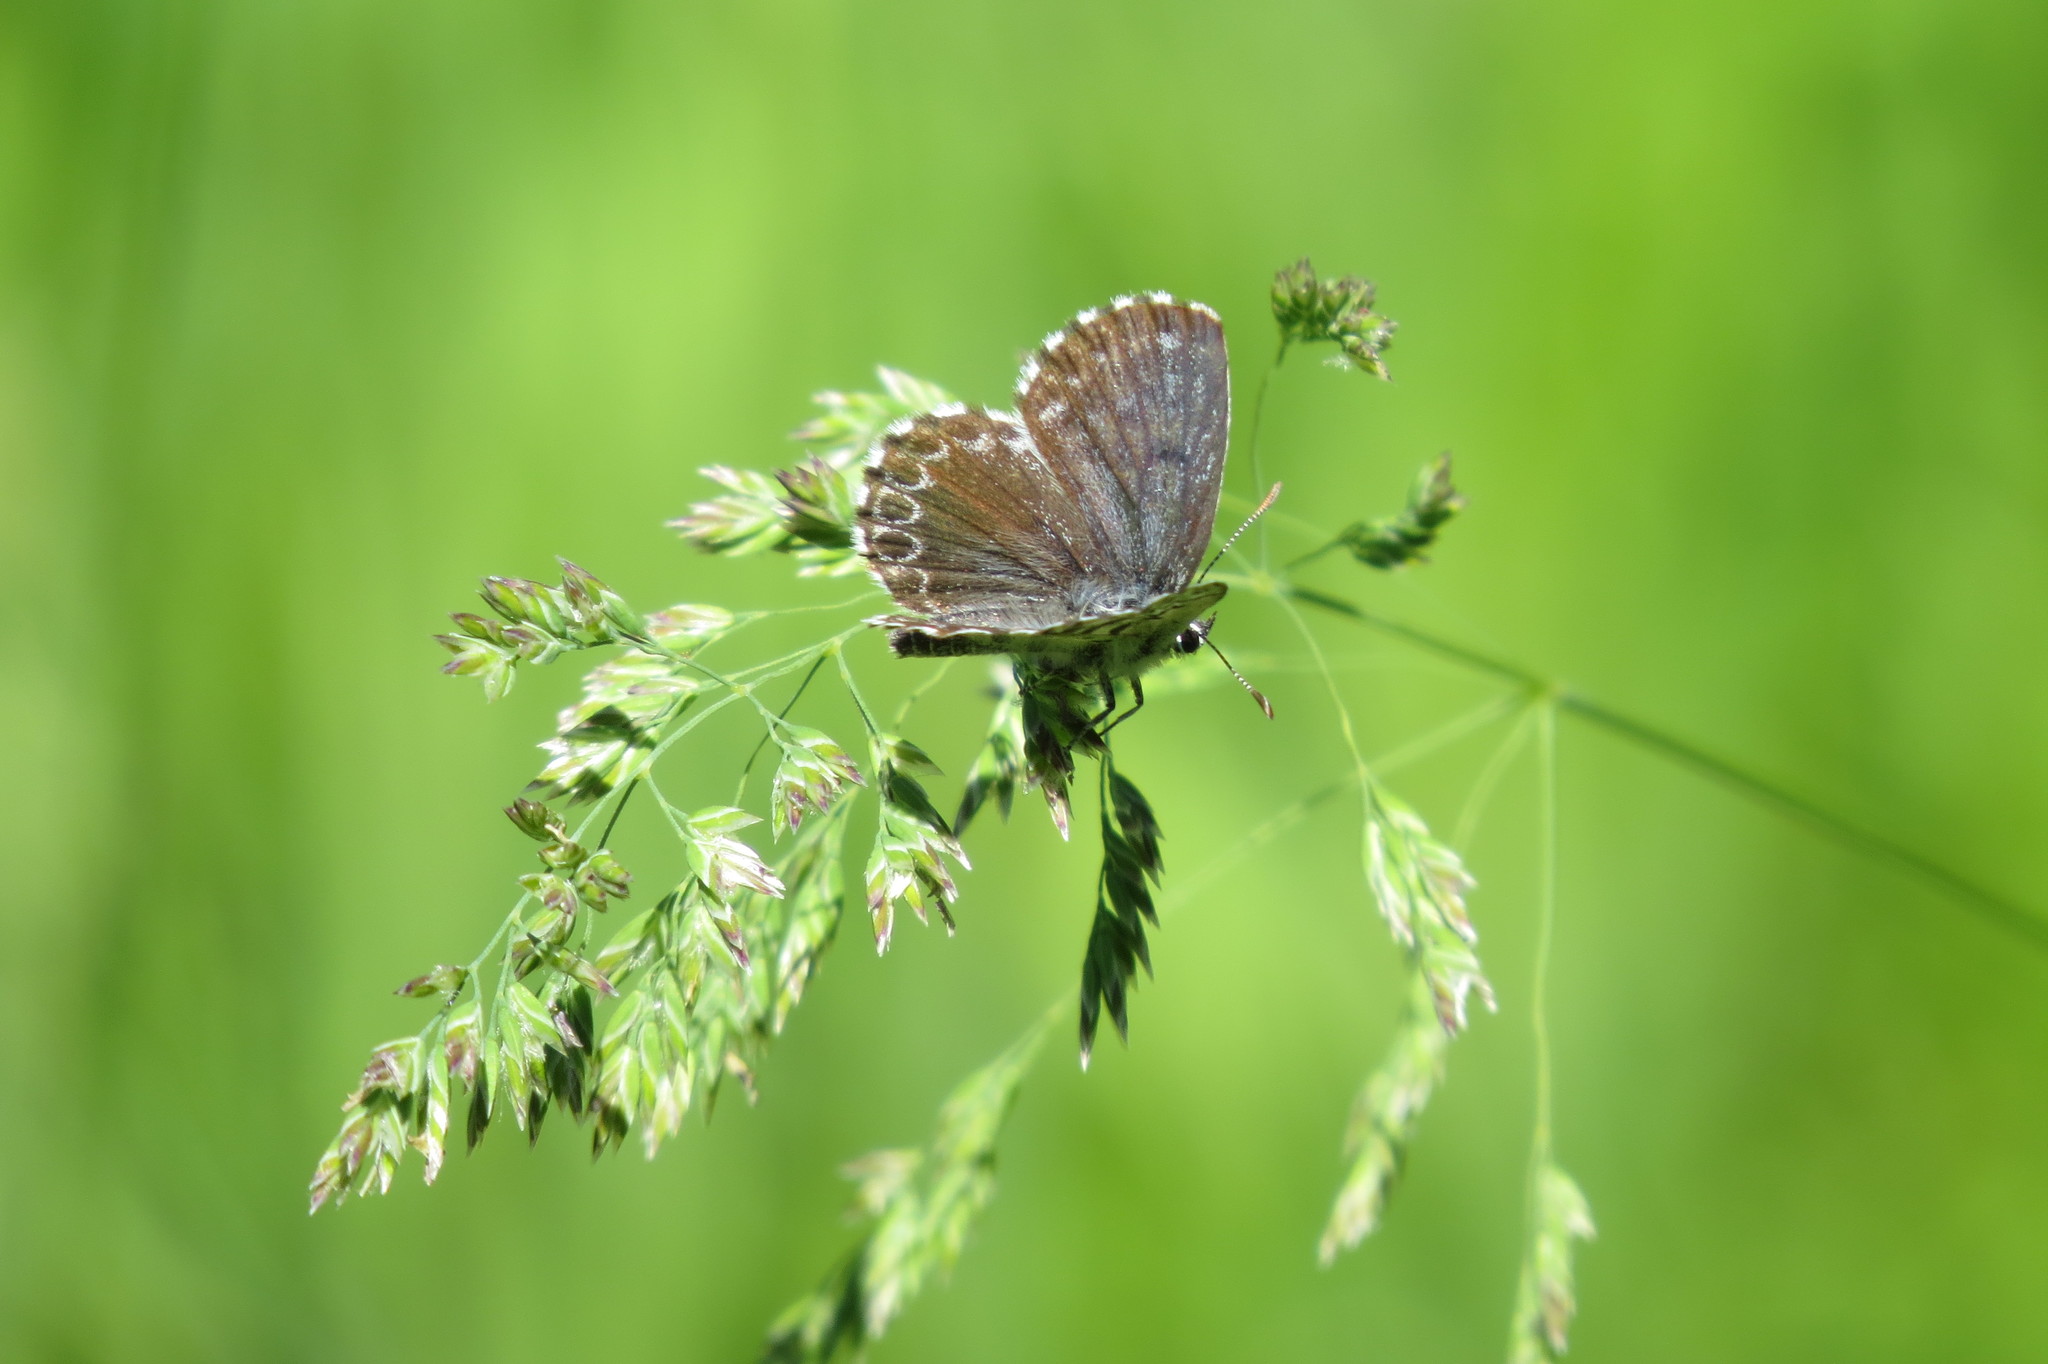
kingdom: Animalia
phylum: Arthropoda
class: Insecta
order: Lepidoptera
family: Lycaenidae
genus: Scolitantides
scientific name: Scolitantides orion
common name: Chequered blue
